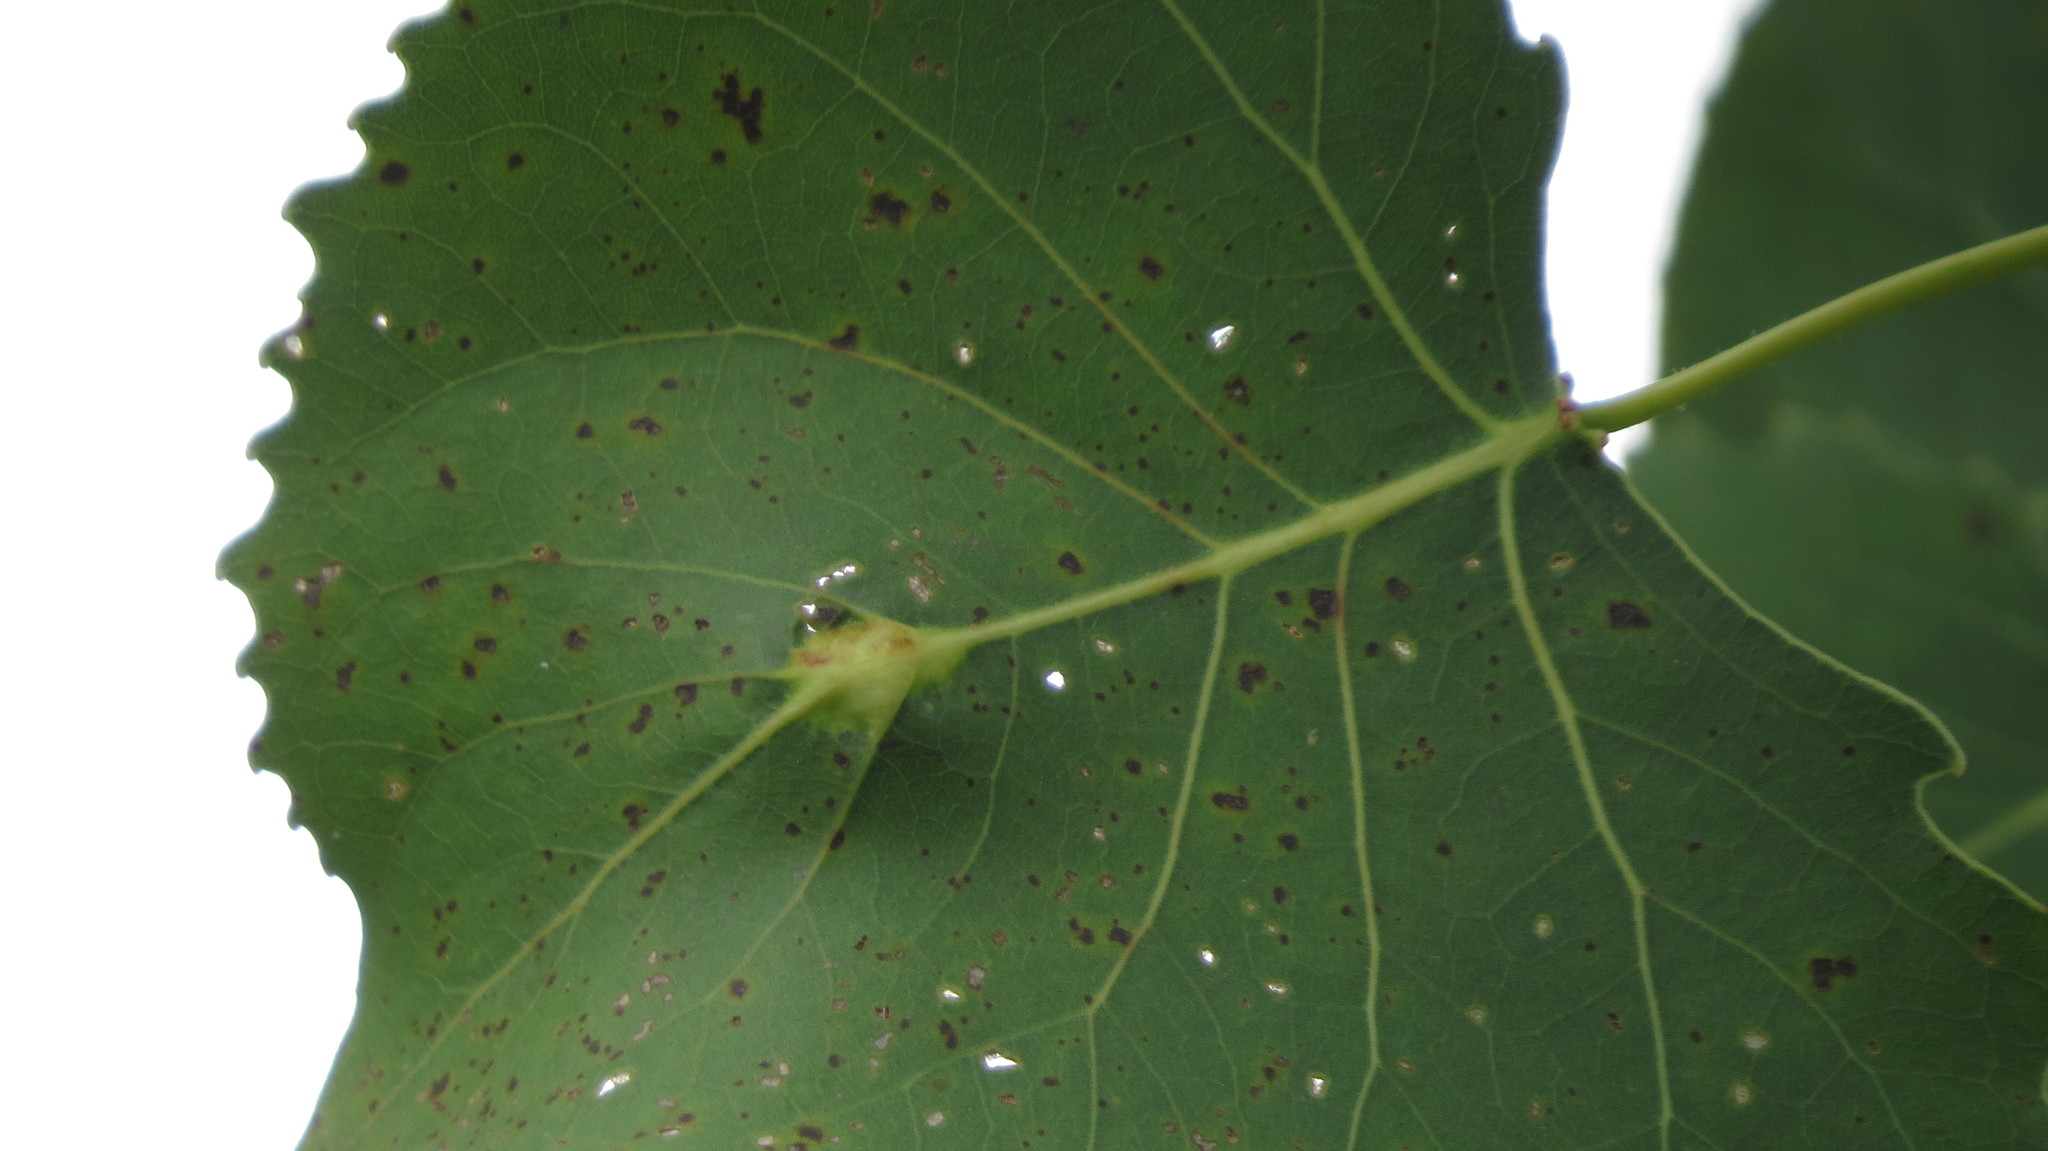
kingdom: Animalia
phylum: Arthropoda
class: Insecta
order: Hemiptera
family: Aphididae
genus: Pachypappa
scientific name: Pachypappa pseudobyrsa
